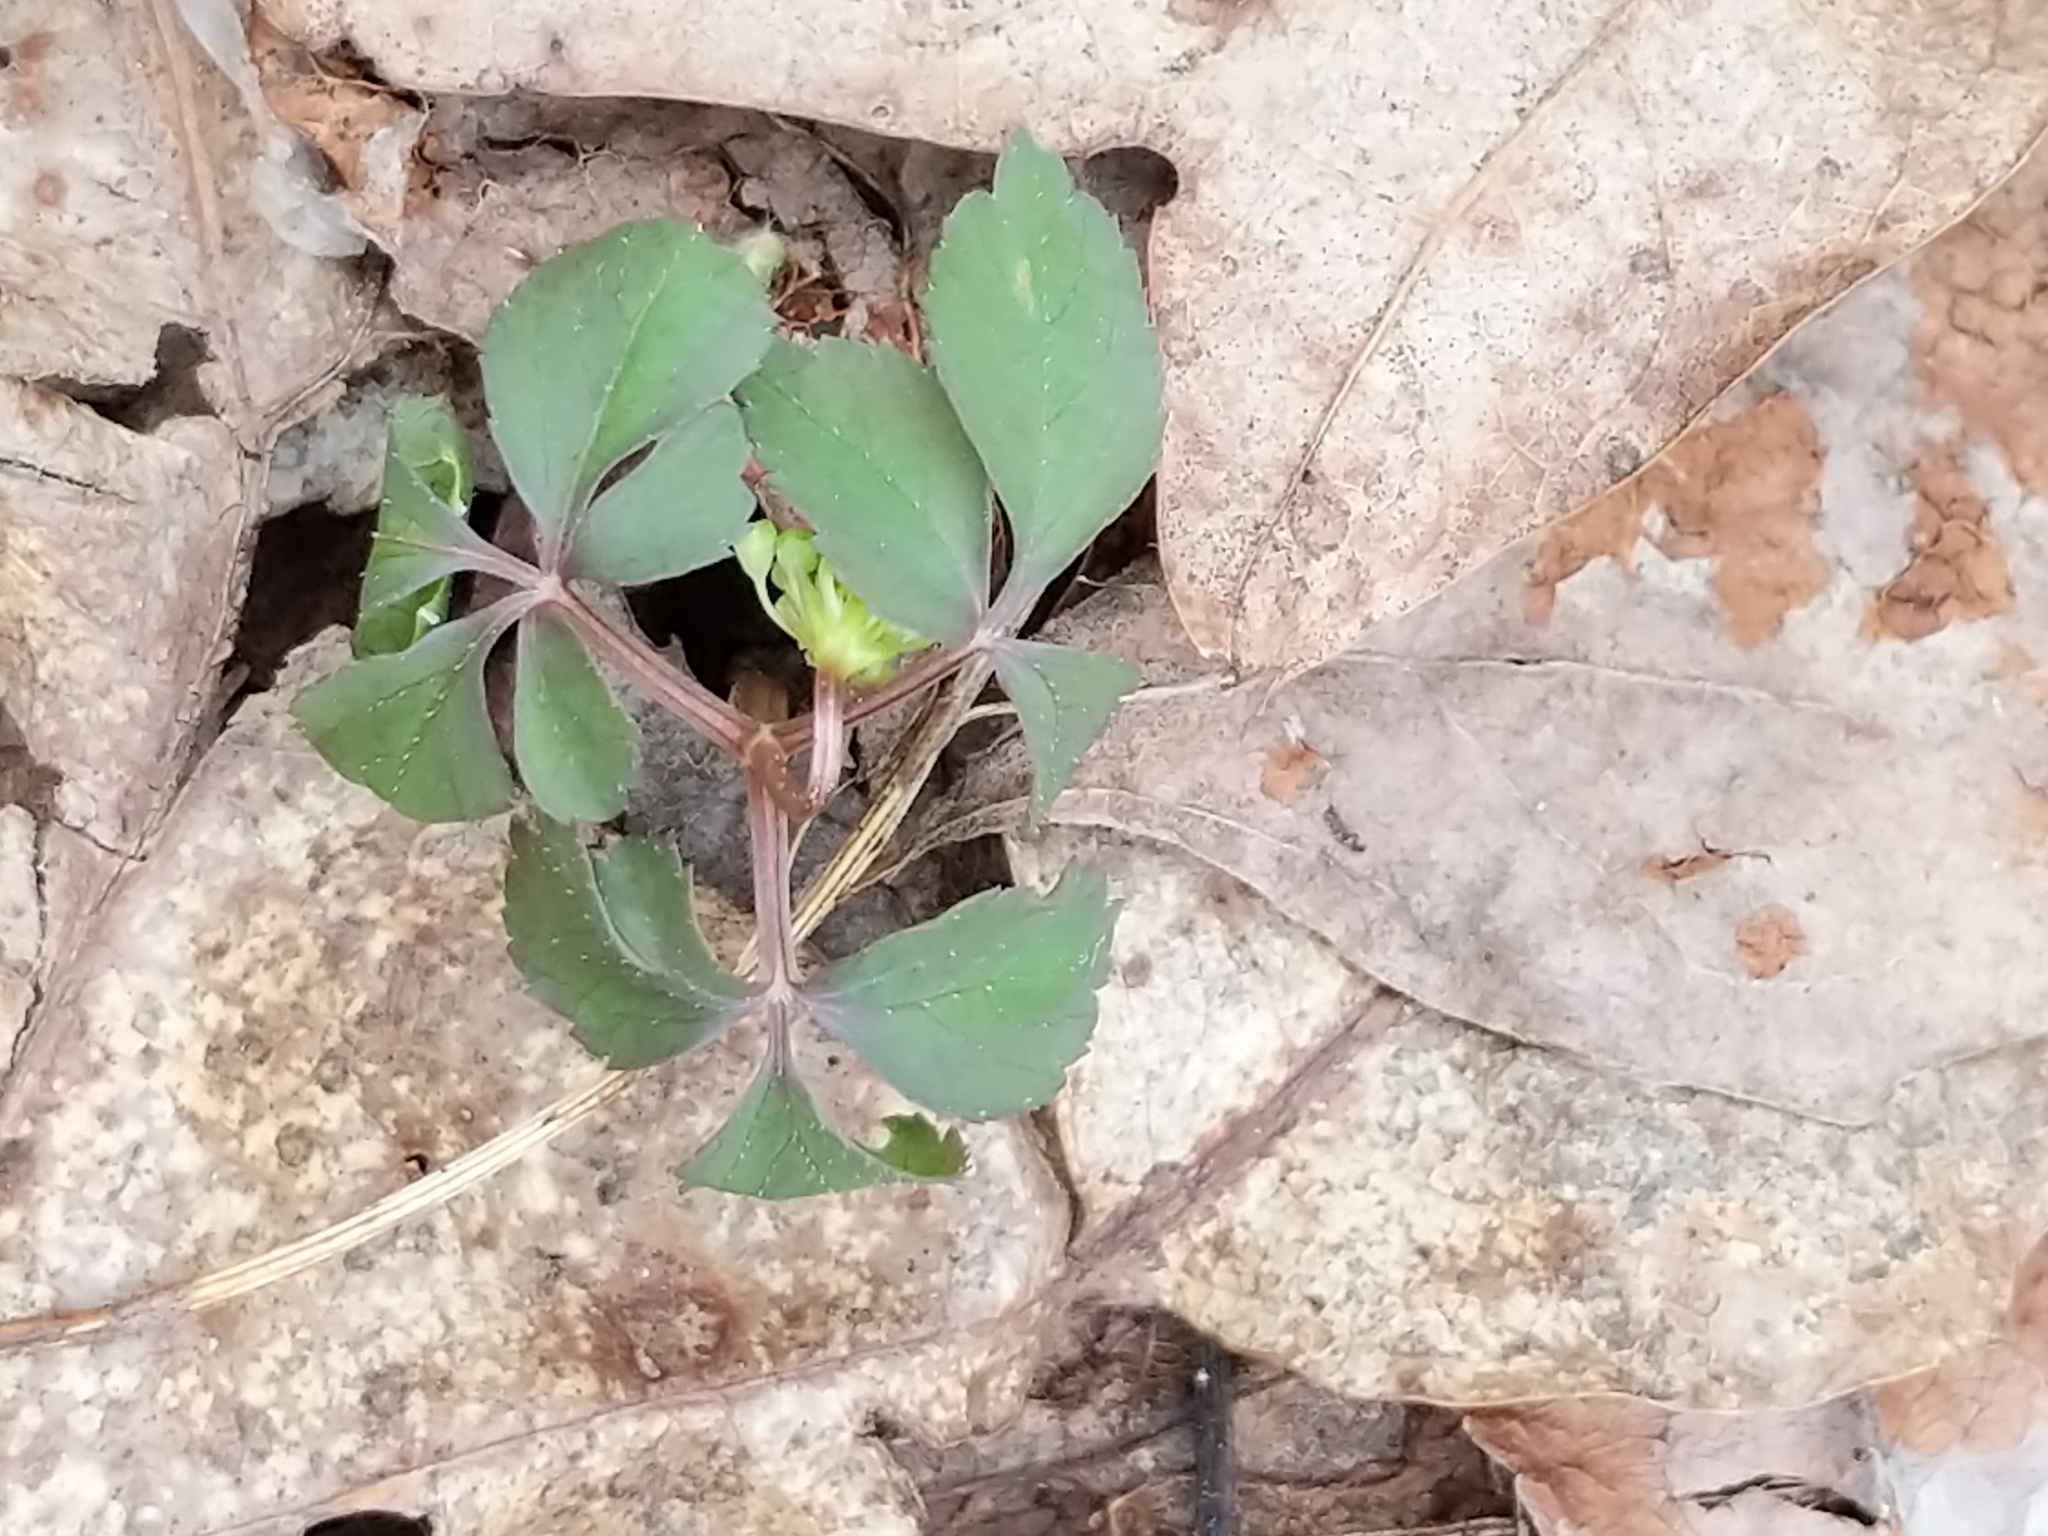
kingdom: Plantae
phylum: Tracheophyta
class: Magnoliopsida
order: Apiales
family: Araliaceae
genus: Panax
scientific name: Panax trifolius
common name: Dwarf ginseng
